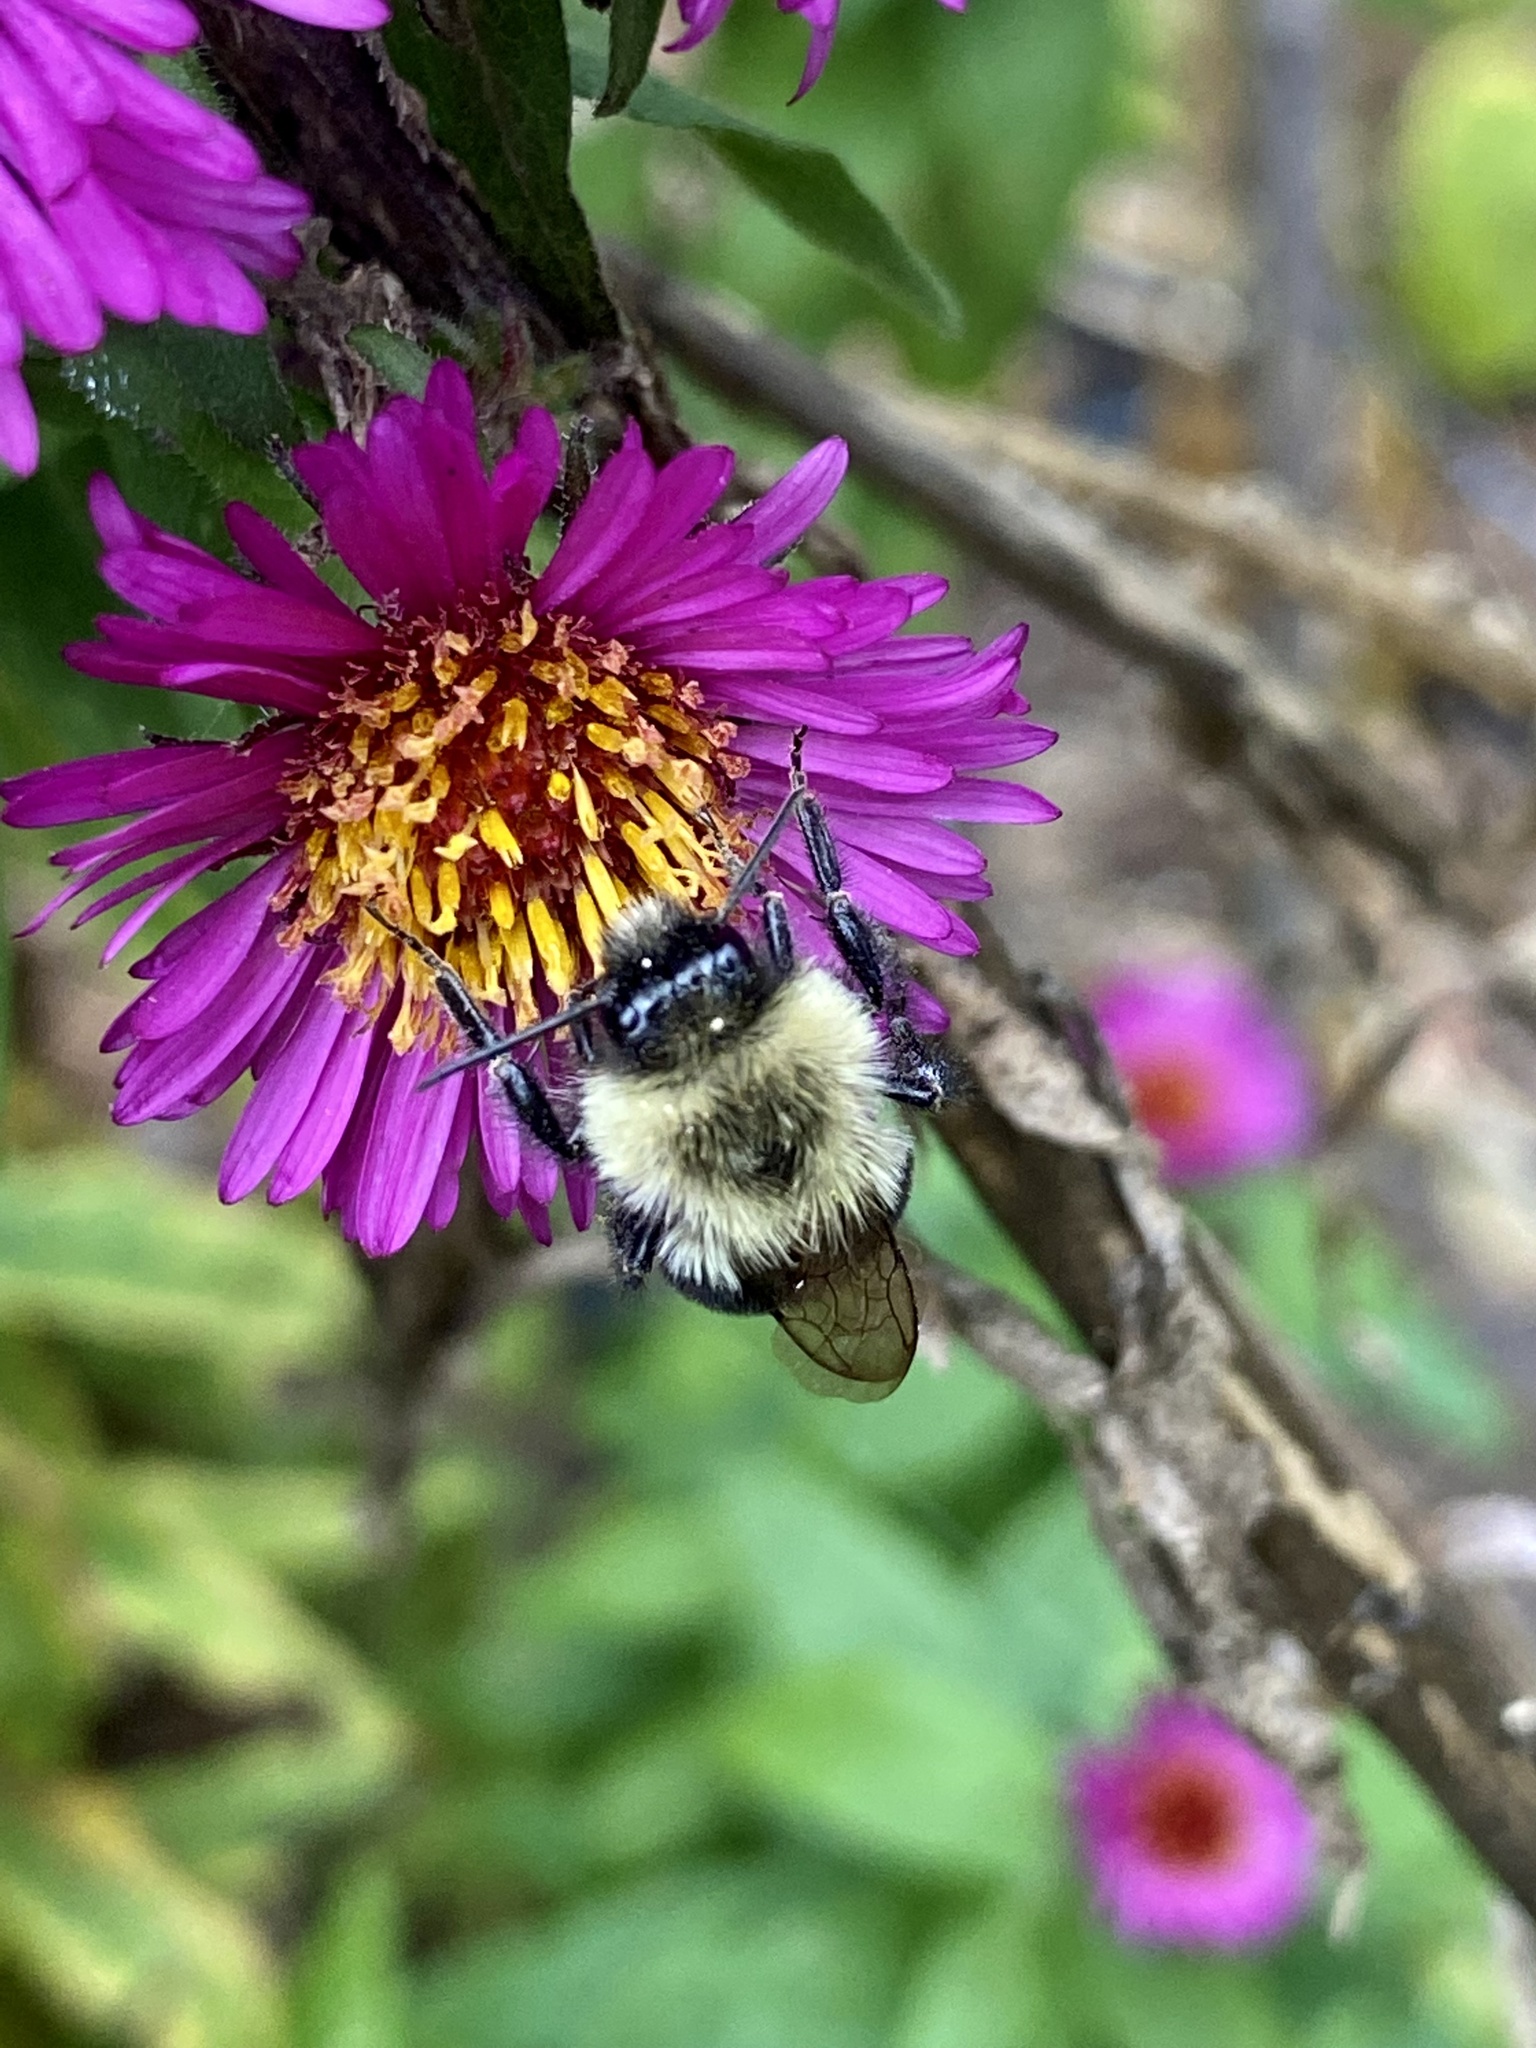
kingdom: Animalia
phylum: Arthropoda
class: Insecta
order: Hymenoptera
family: Apidae
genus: Bombus
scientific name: Bombus impatiens
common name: Common eastern bumble bee
